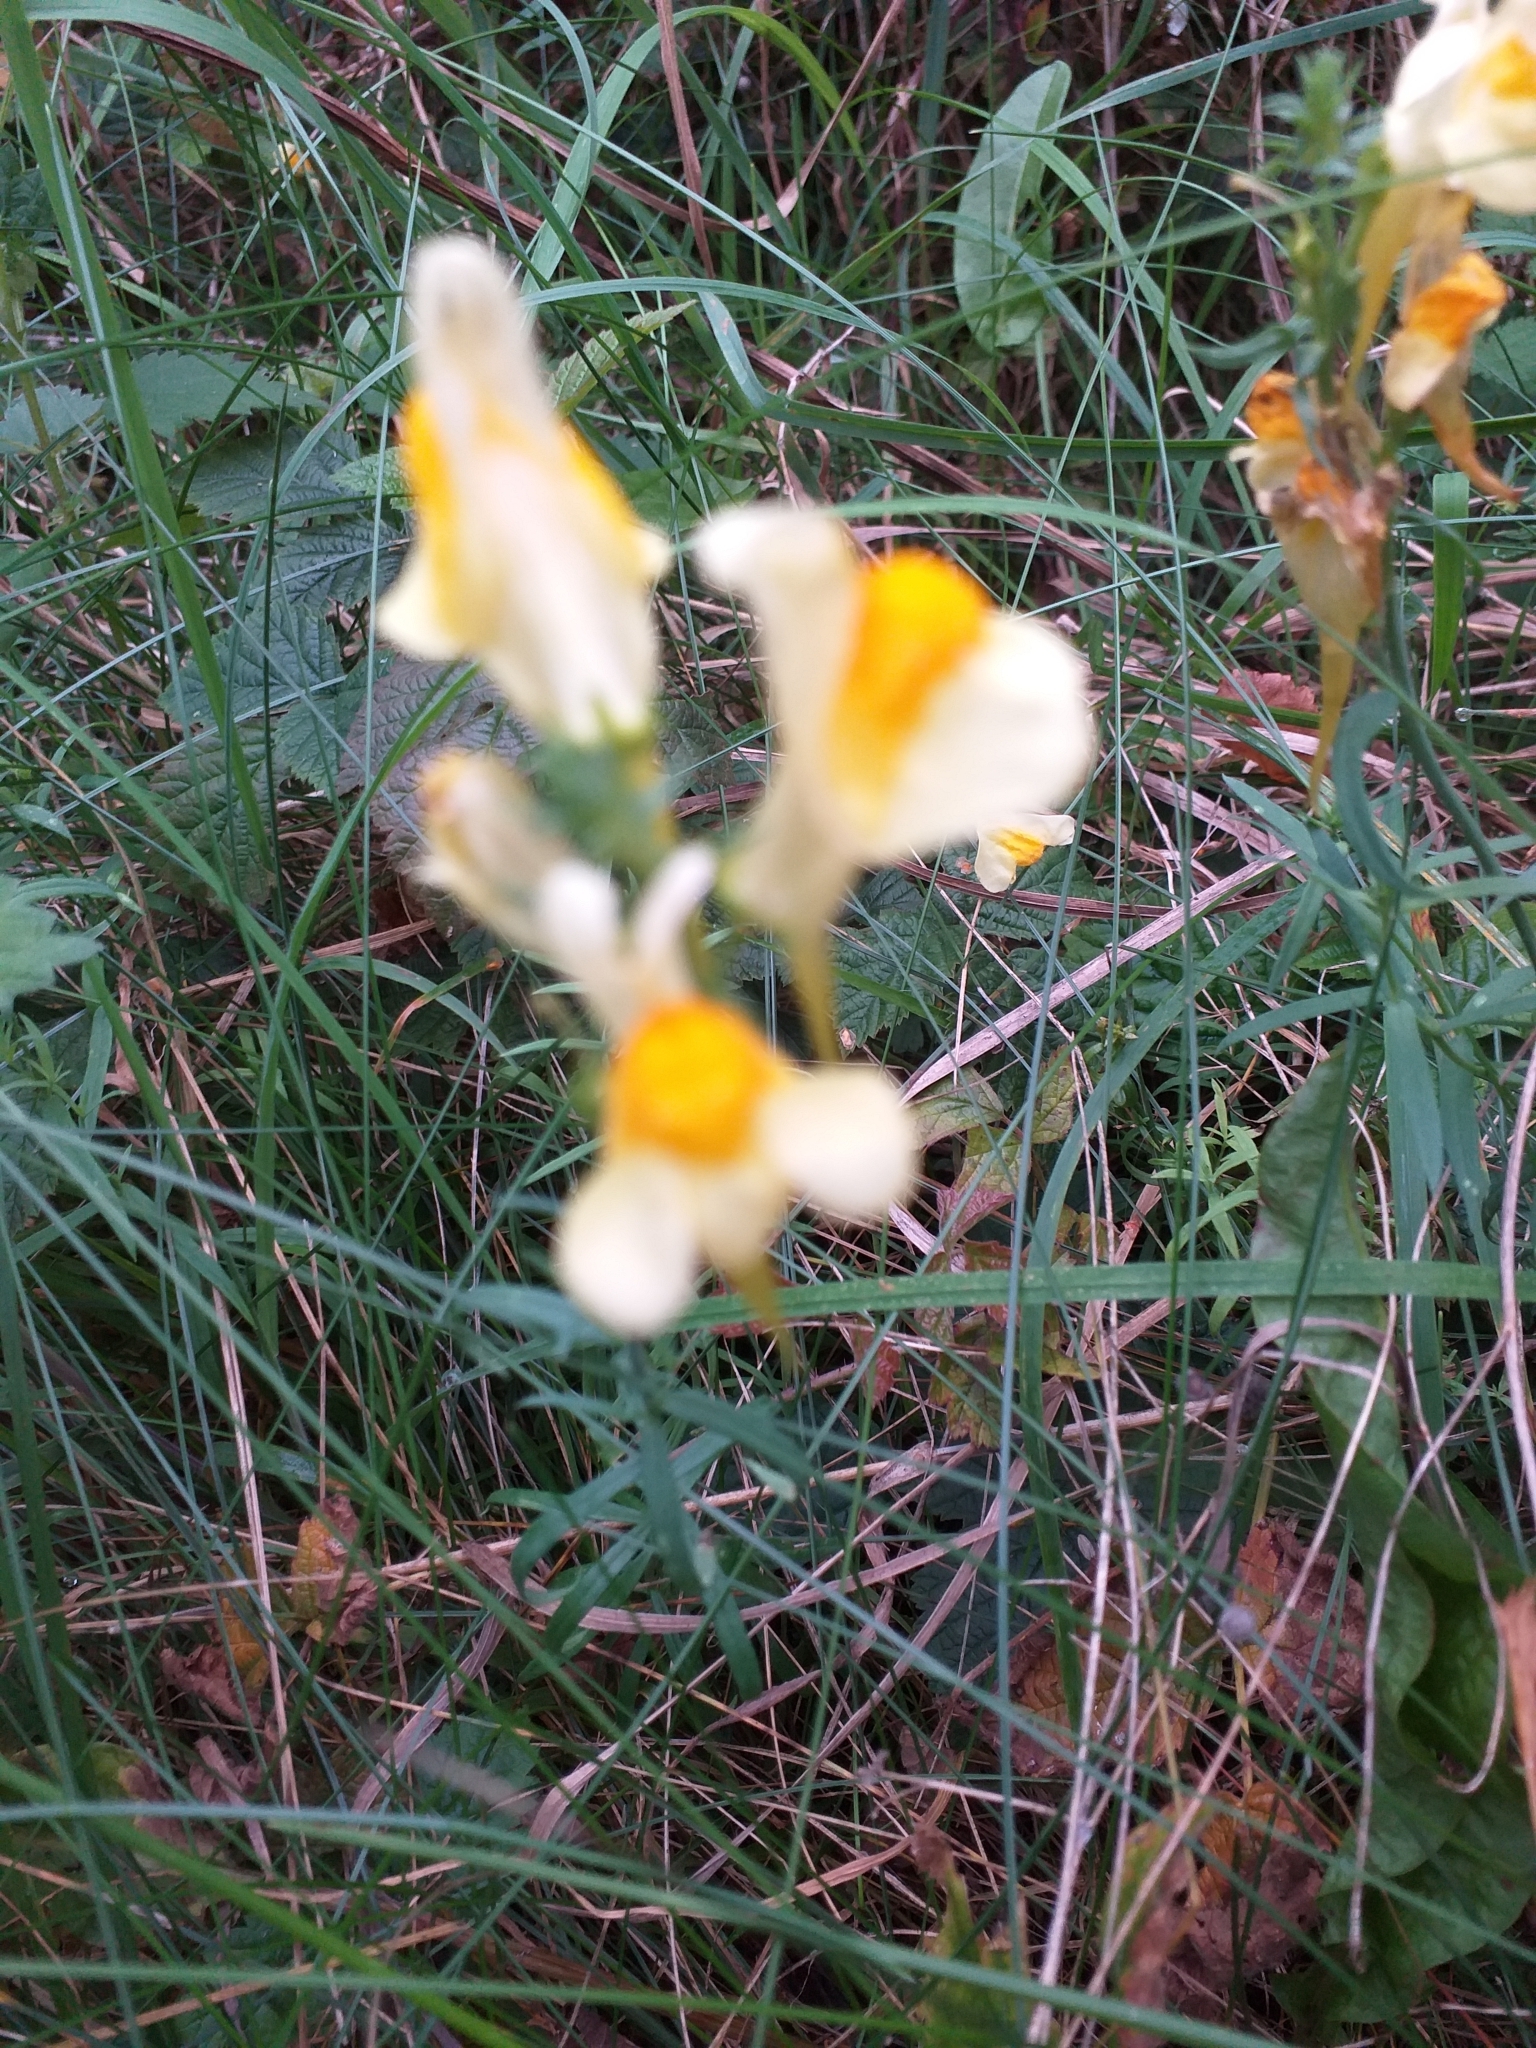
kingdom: Plantae
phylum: Tracheophyta
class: Magnoliopsida
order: Lamiales
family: Plantaginaceae
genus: Linaria
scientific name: Linaria vulgaris
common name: Butter and eggs
